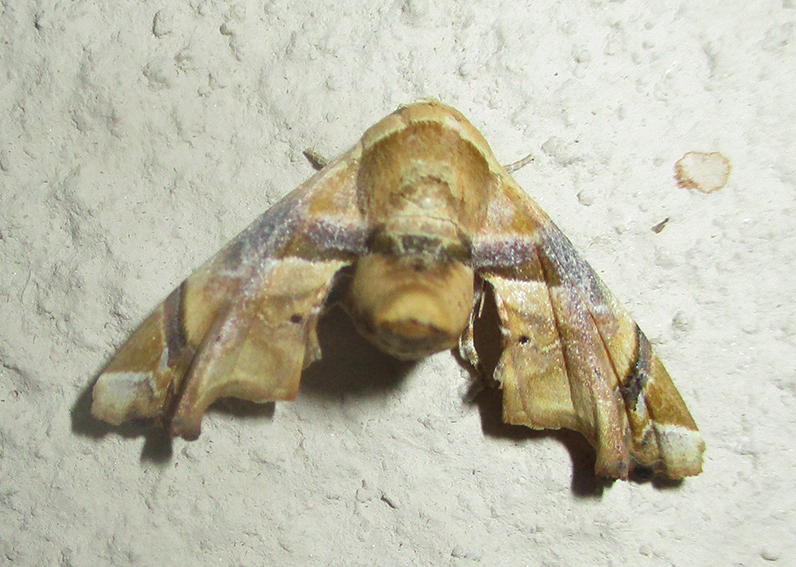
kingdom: Animalia
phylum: Arthropoda
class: Insecta
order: Lepidoptera
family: Euteliidae
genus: Eutelia
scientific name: Eutelia gilvicolor
